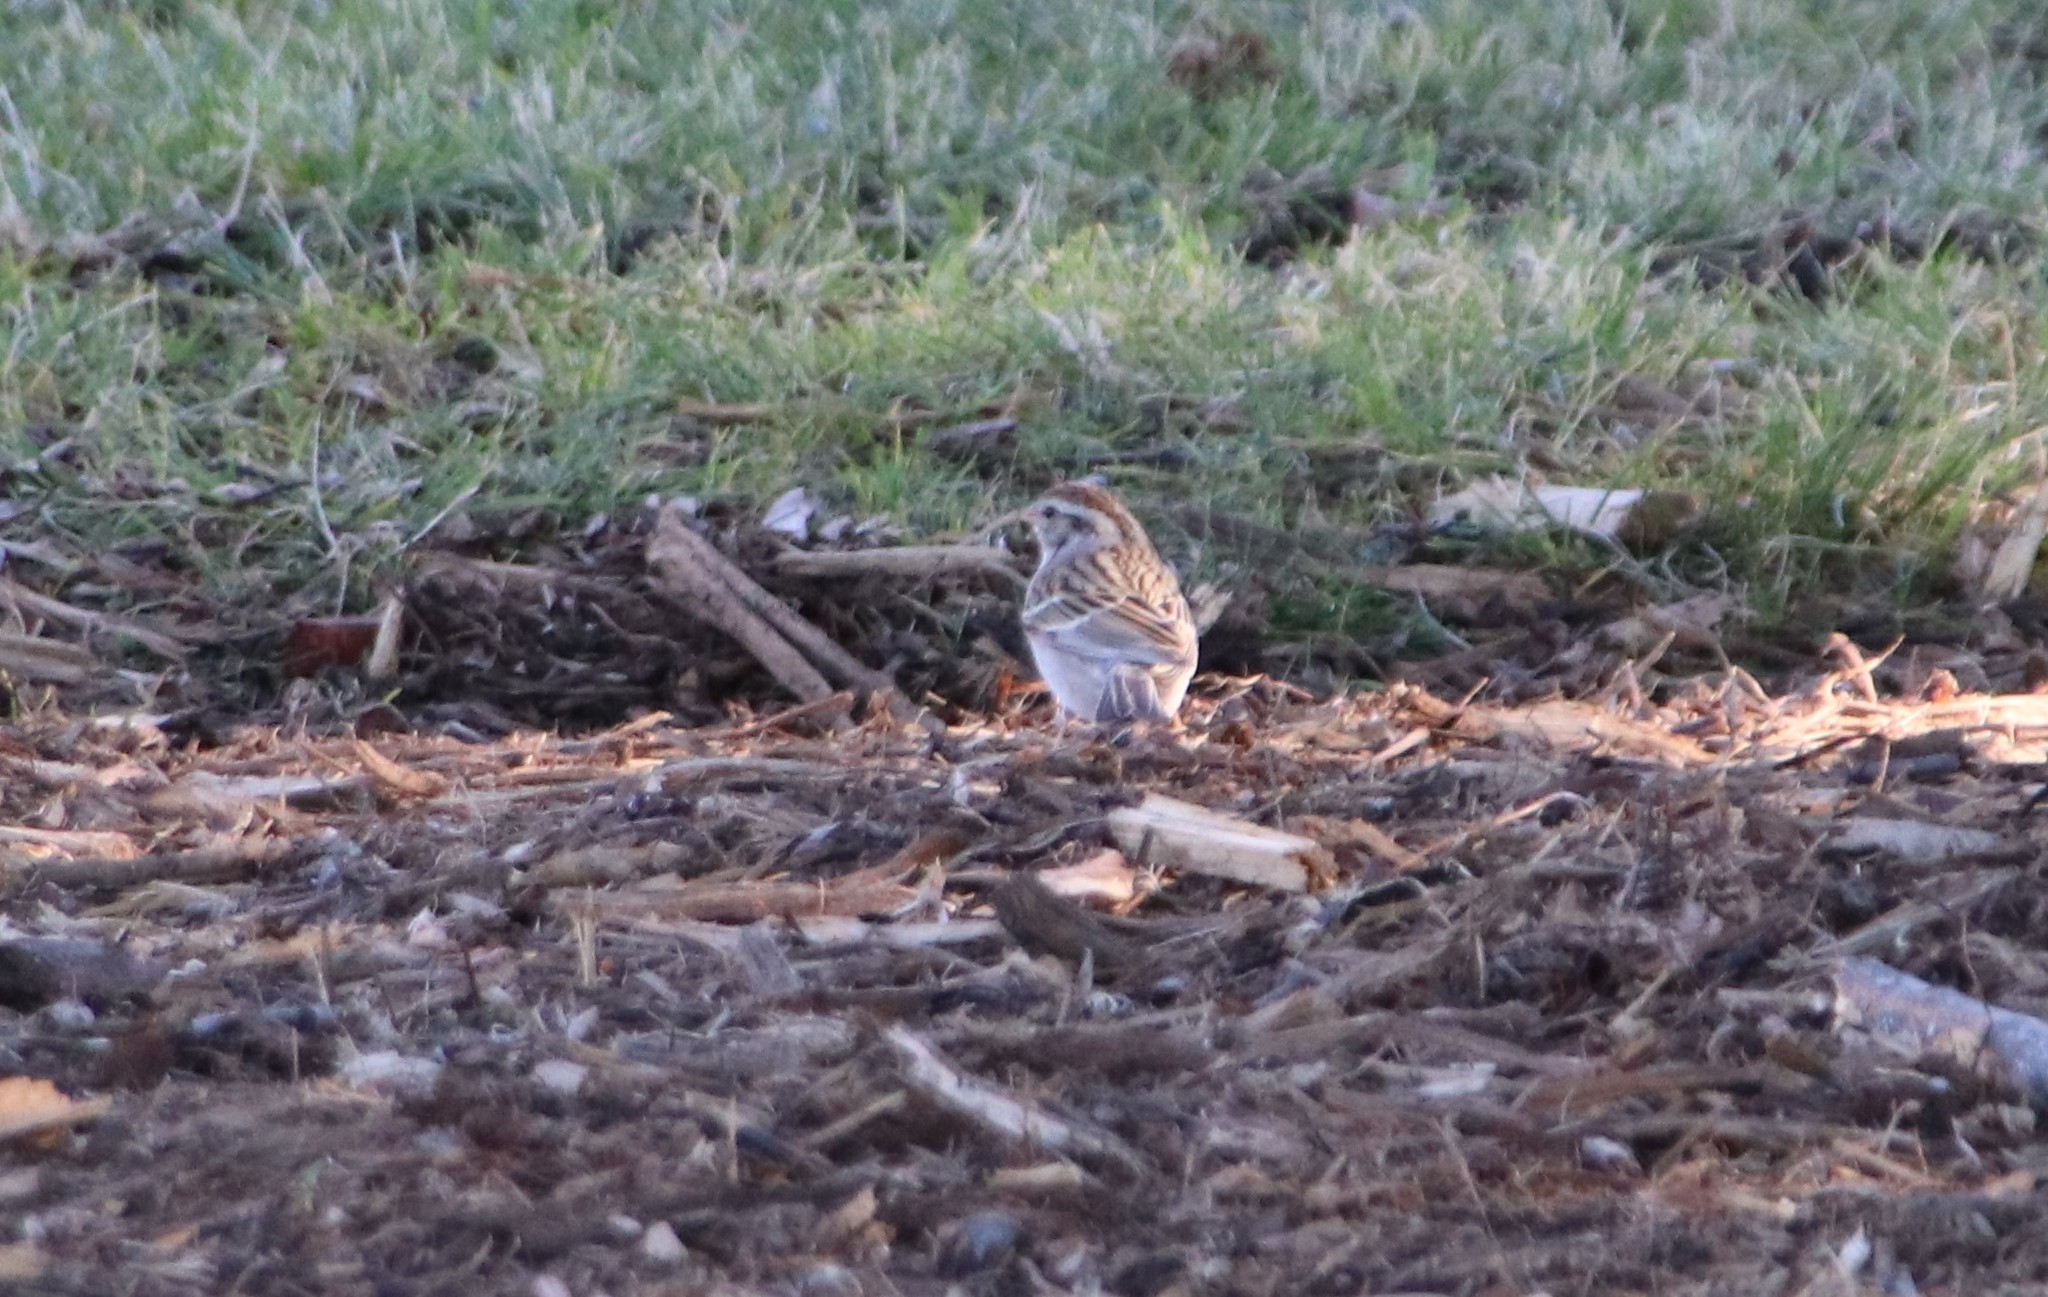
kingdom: Animalia
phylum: Chordata
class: Aves
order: Passeriformes
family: Passerellidae
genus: Spizella
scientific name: Spizella passerina
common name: Chipping sparrow
